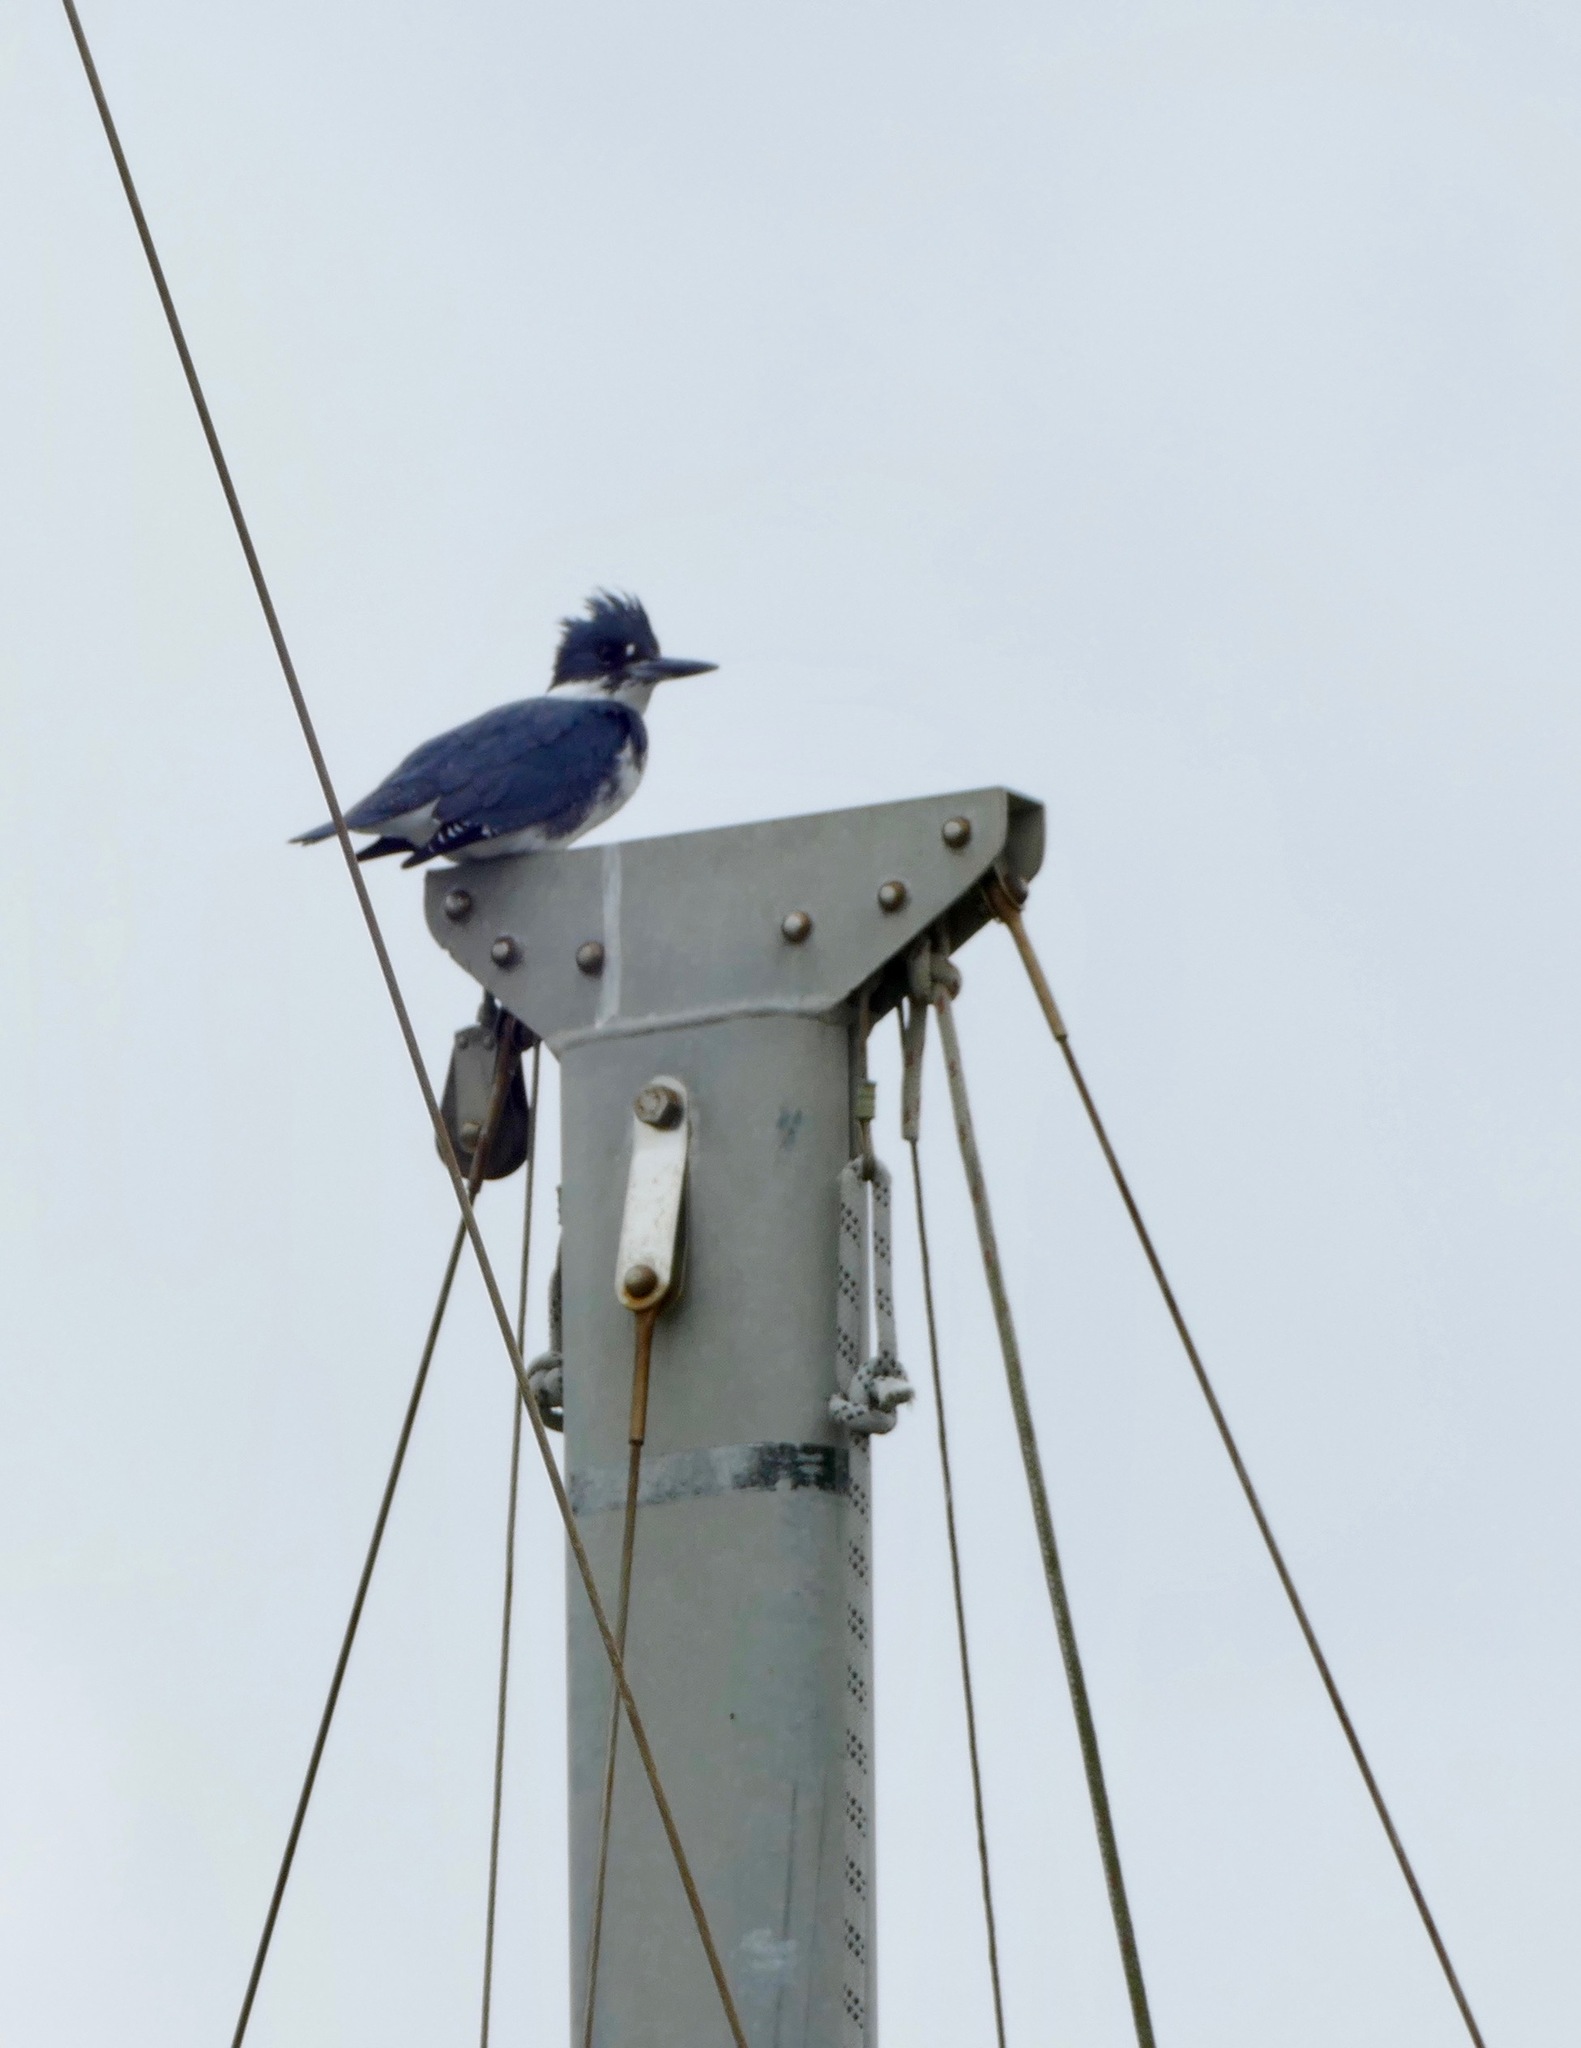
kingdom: Animalia
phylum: Chordata
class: Aves
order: Coraciiformes
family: Alcedinidae
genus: Megaceryle
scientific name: Megaceryle alcyon
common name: Belted kingfisher
